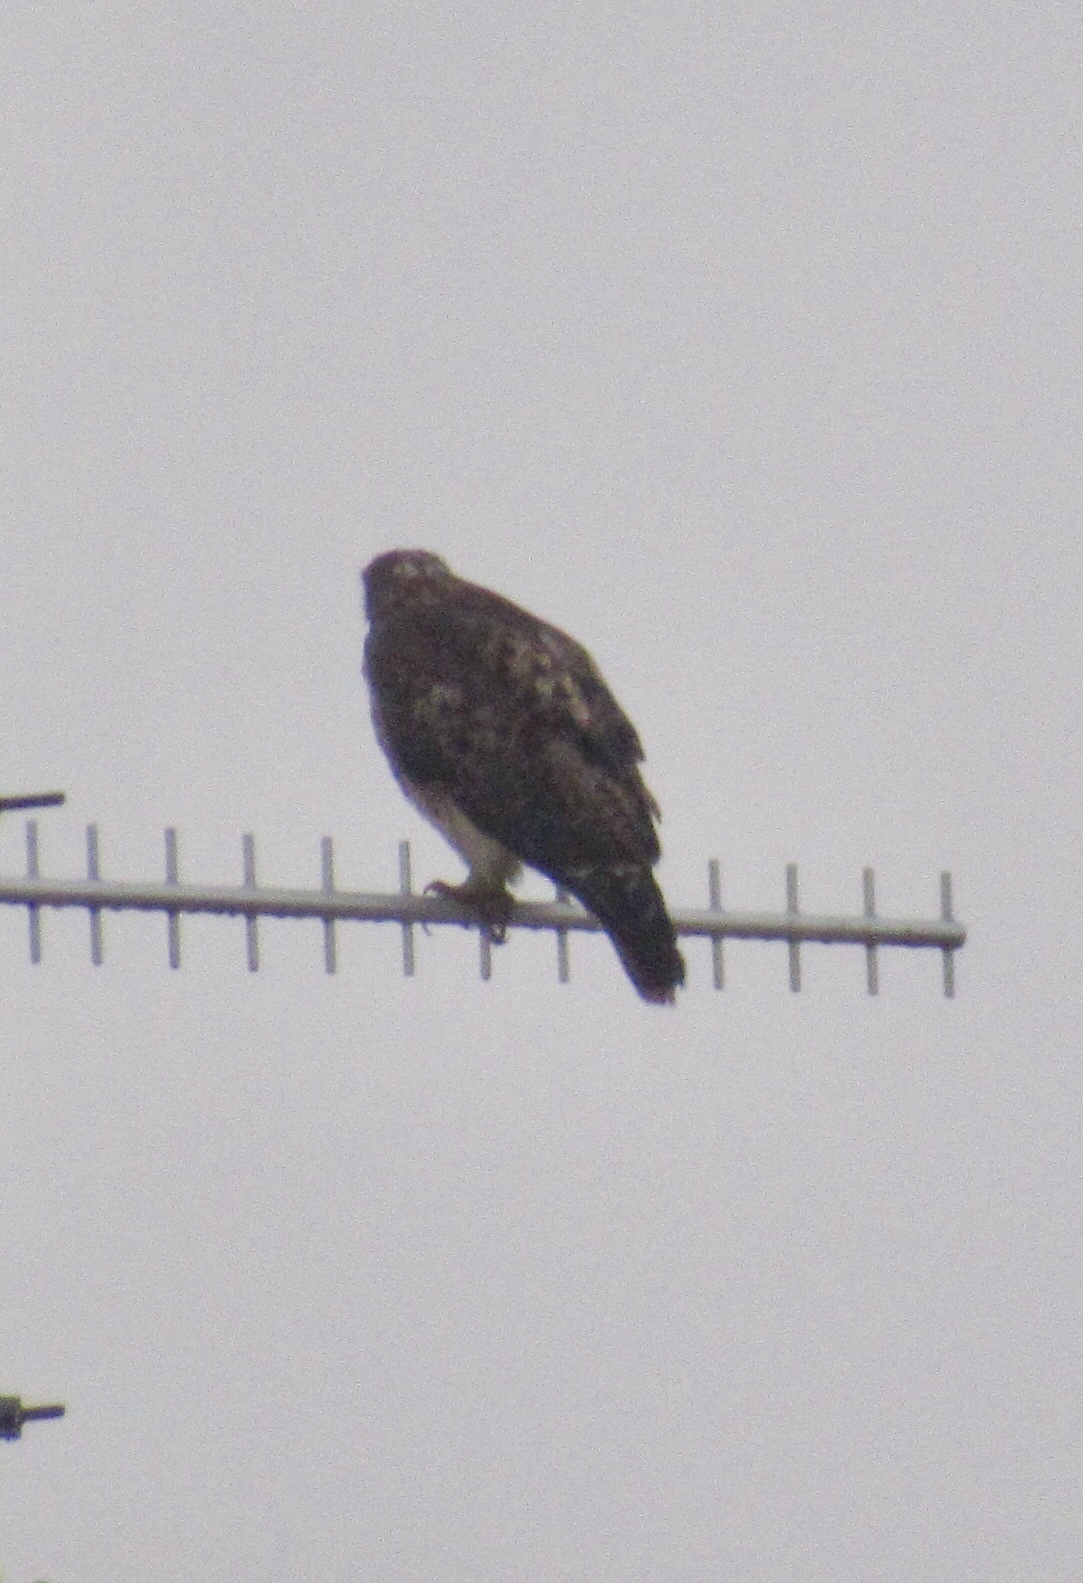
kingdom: Animalia
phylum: Chordata
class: Aves
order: Accipitriformes
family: Accipitridae
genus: Buteo
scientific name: Buteo jamaicensis
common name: Red-tailed hawk
